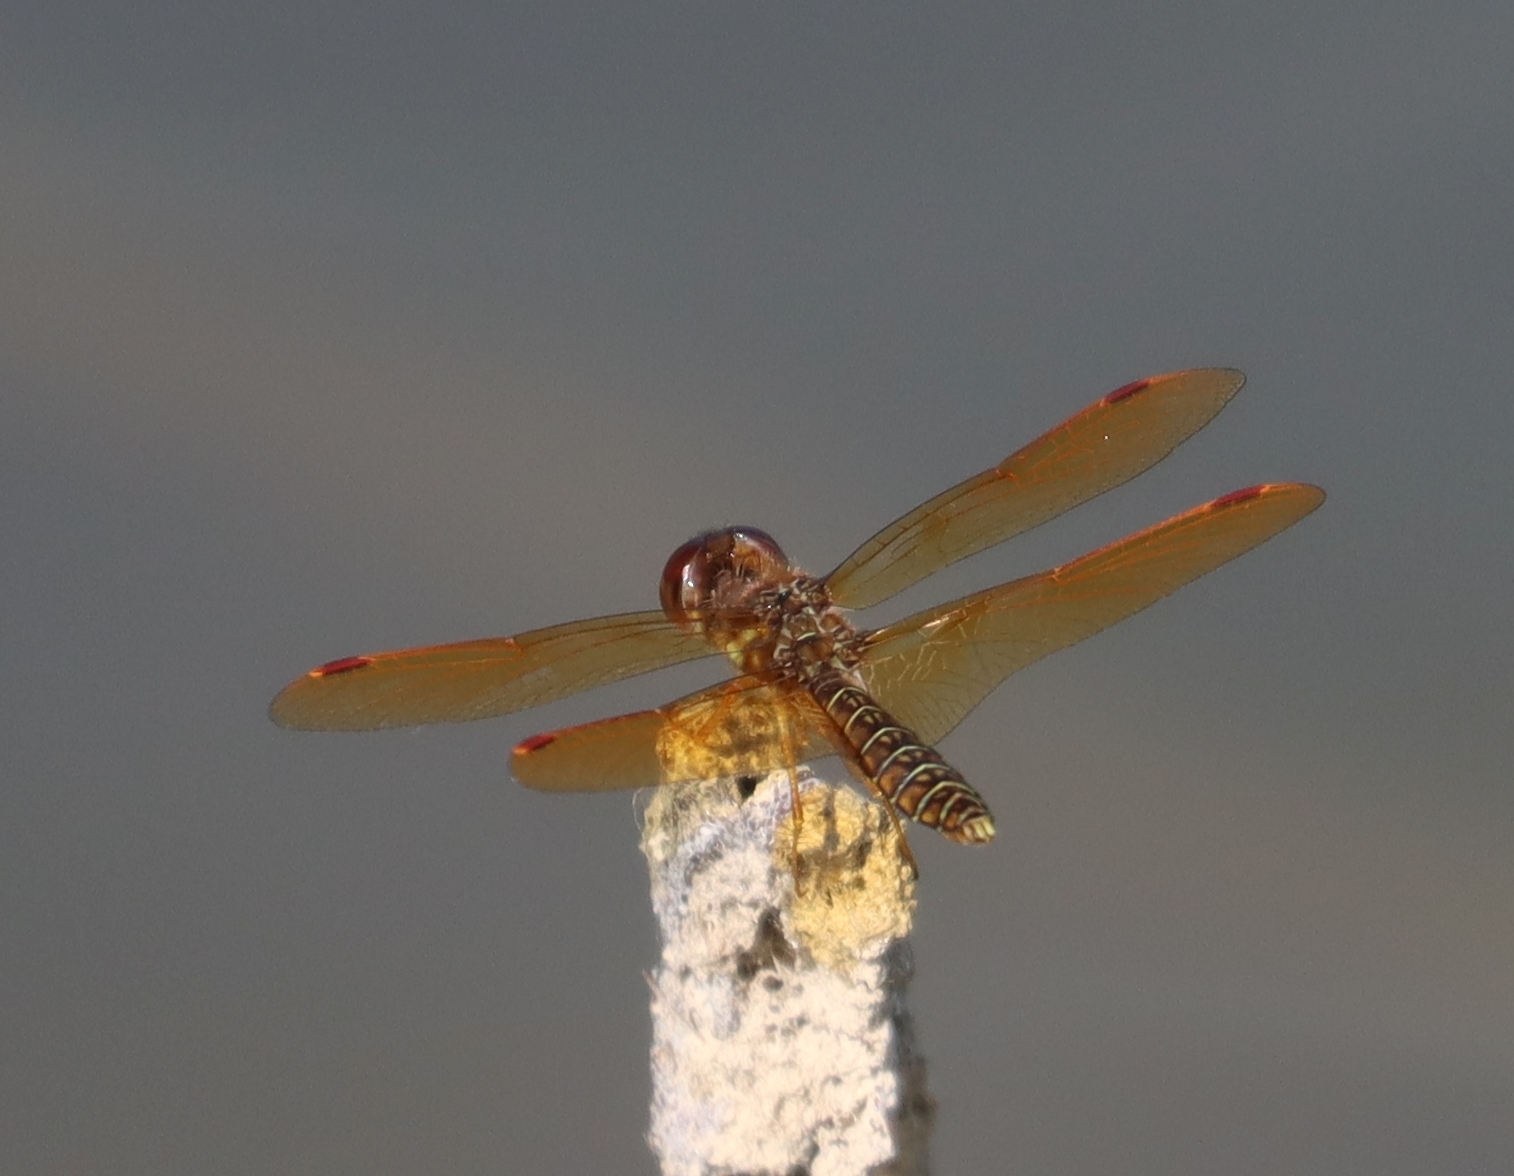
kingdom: Animalia
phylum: Arthropoda
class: Insecta
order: Odonata
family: Libellulidae
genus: Perithemis
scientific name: Perithemis tenera
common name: Eastern amberwing
